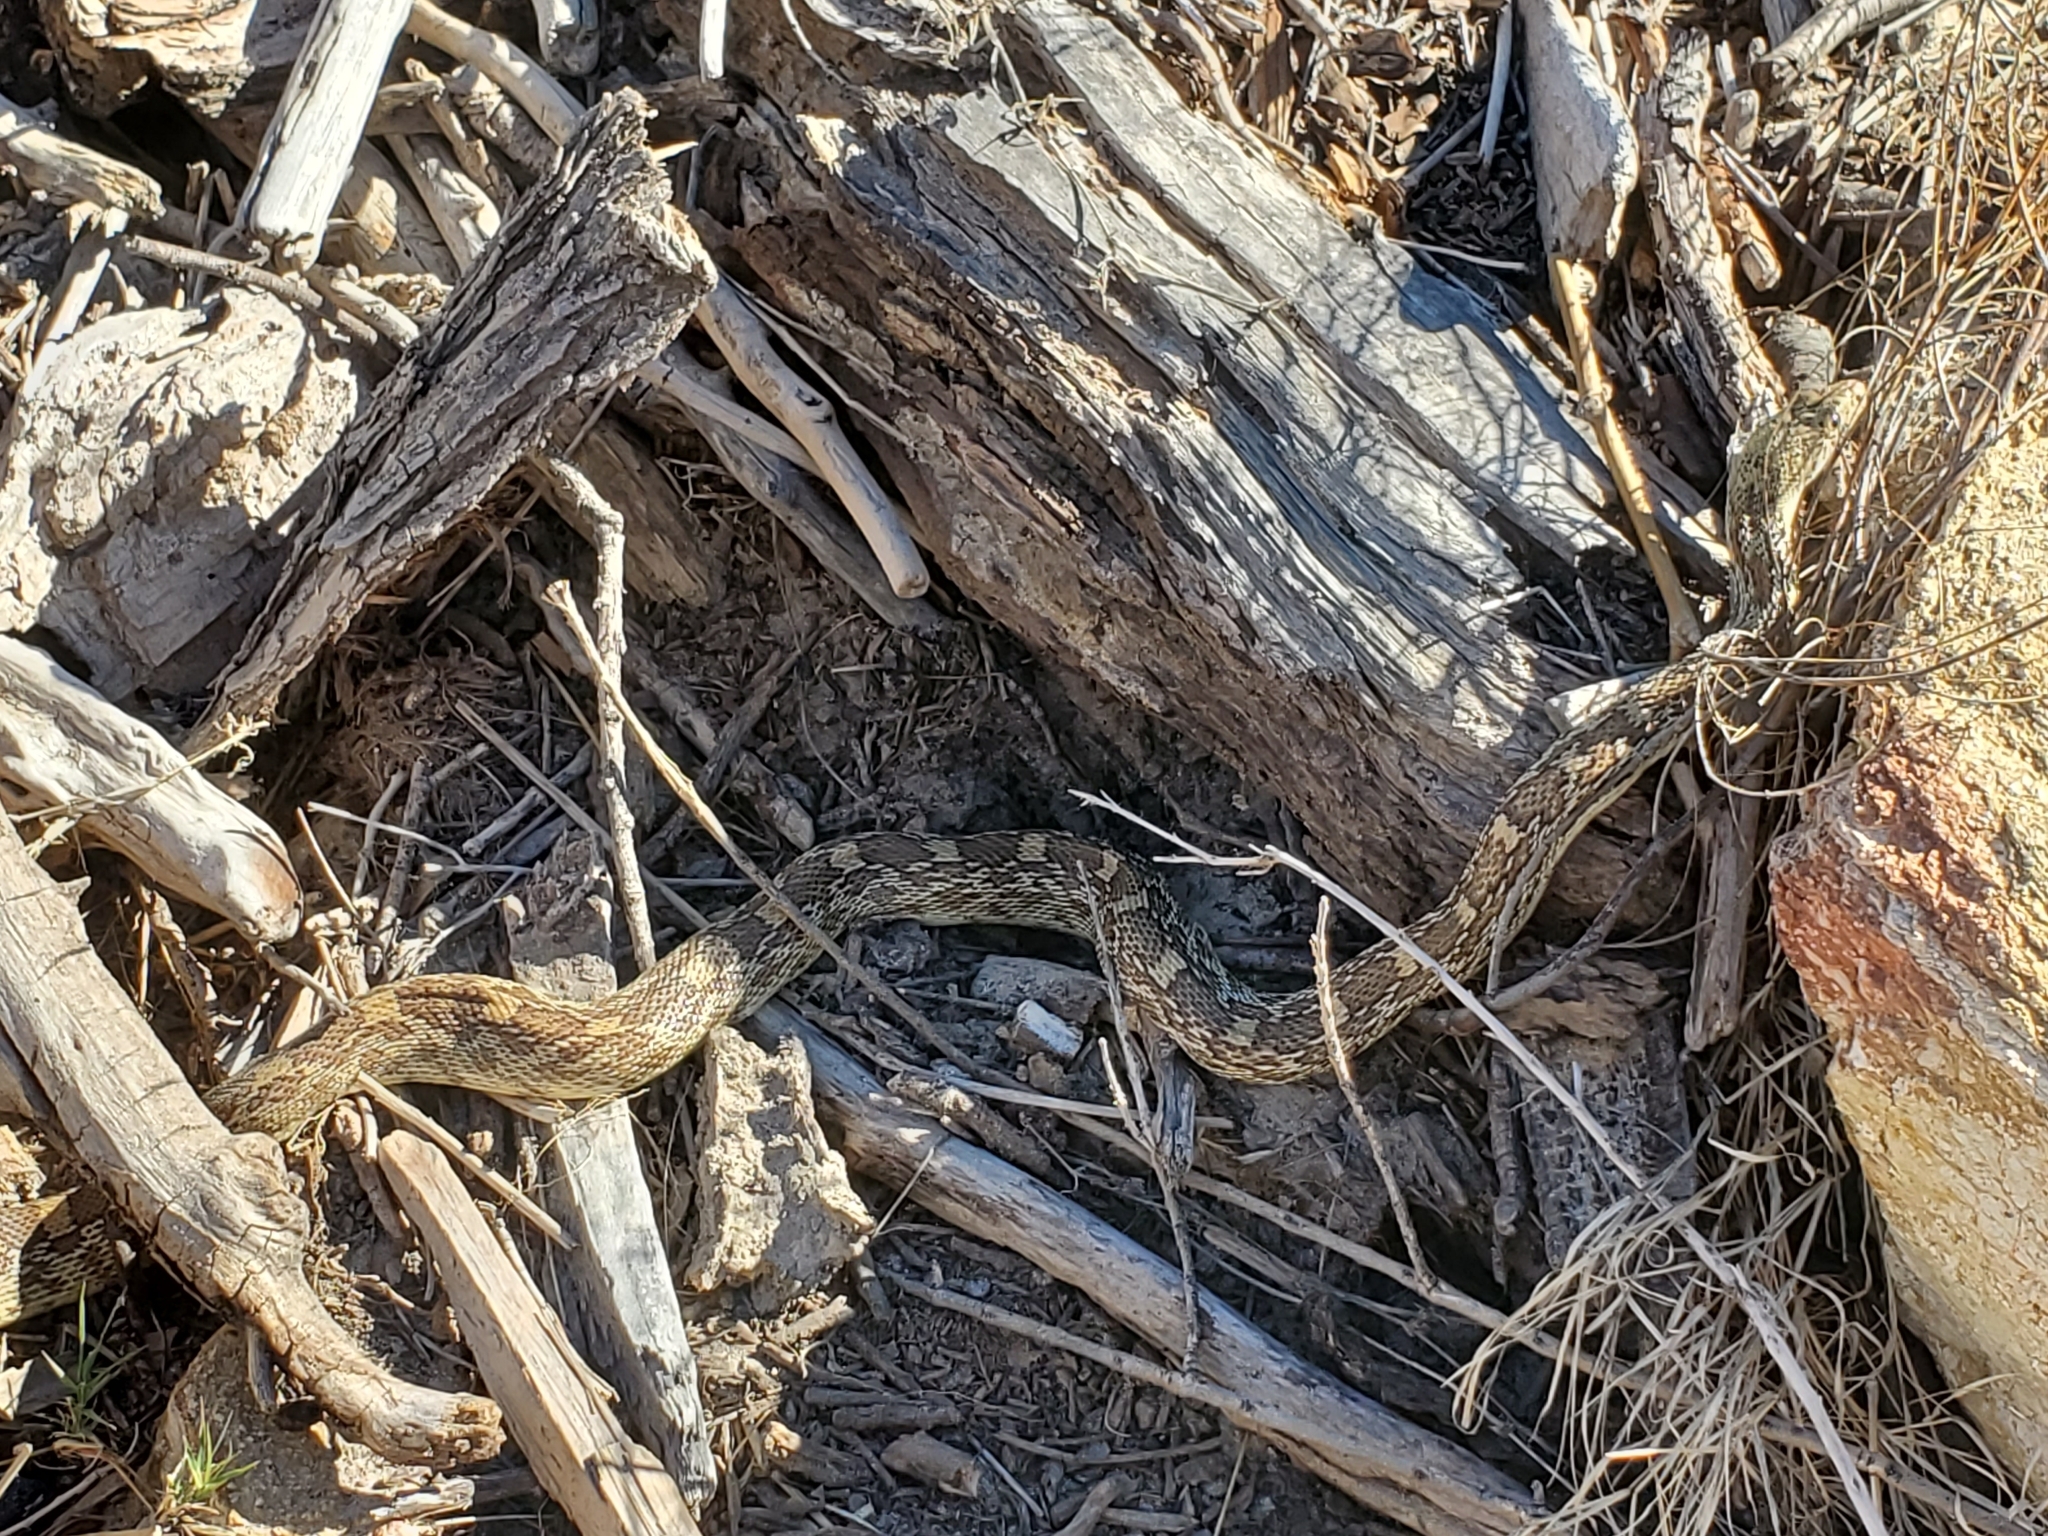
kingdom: Animalia
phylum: Chordata
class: Squamata
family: Colubridae
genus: Pituophis
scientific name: Pituophis catenifer
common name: Gopher snake
